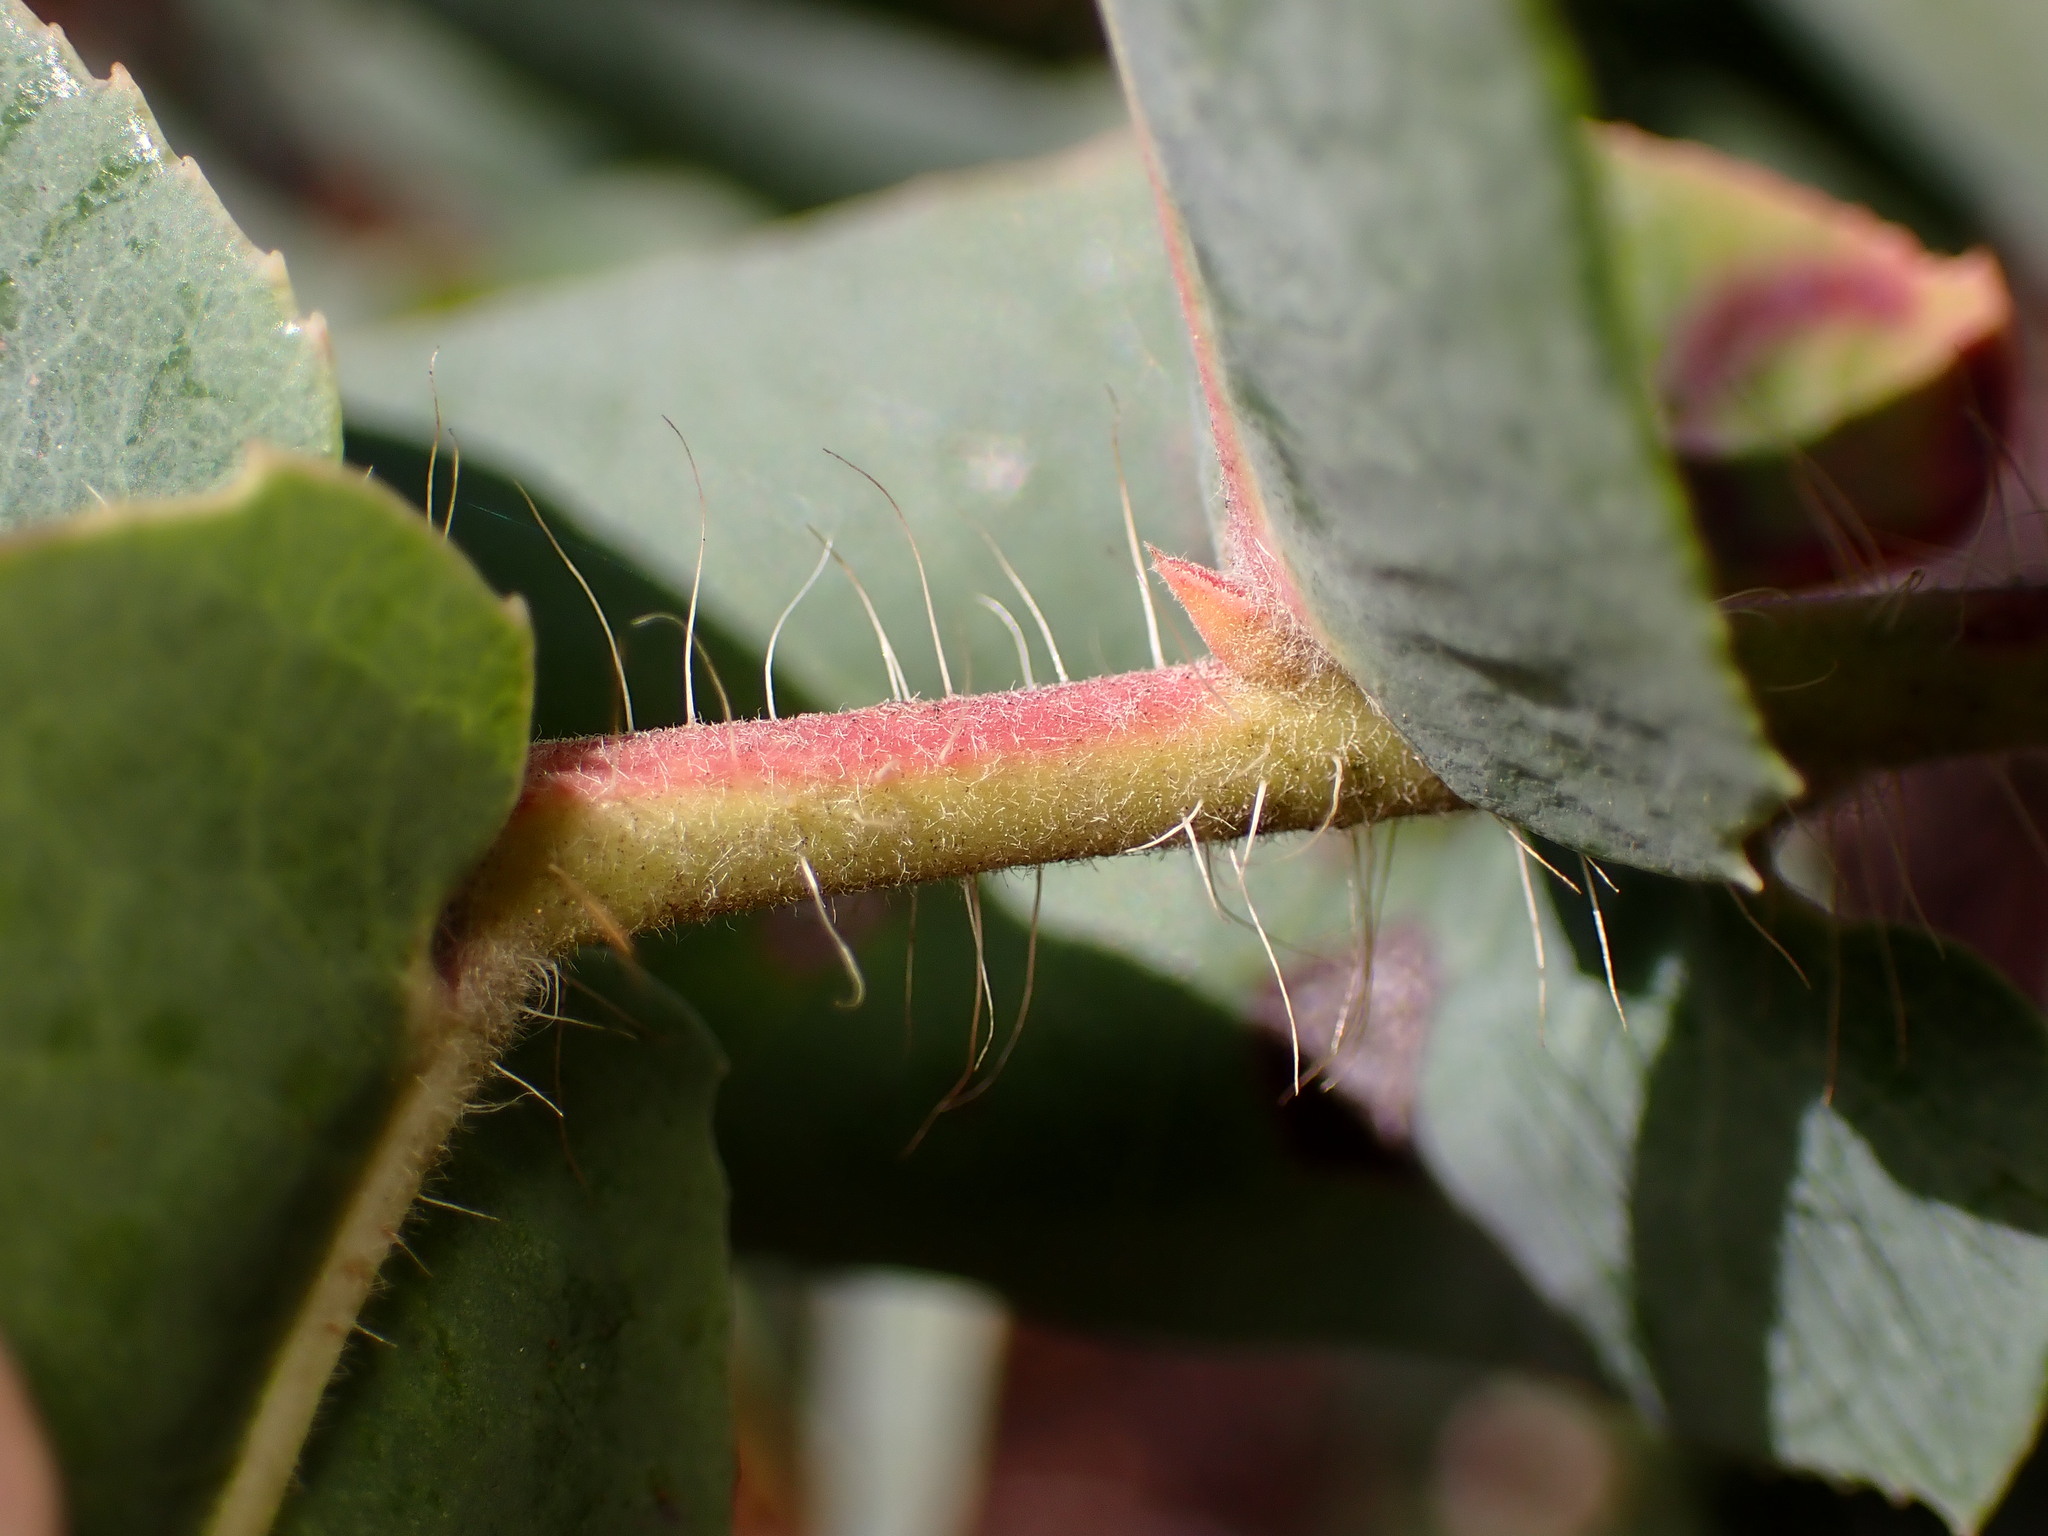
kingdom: Plantae
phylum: Tracheophyta
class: Magnoliopsida
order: Ericales
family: Ericaceae
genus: Arctostaphylos
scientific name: Arctostaphylos andersonii
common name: Santa cruz manzanita
